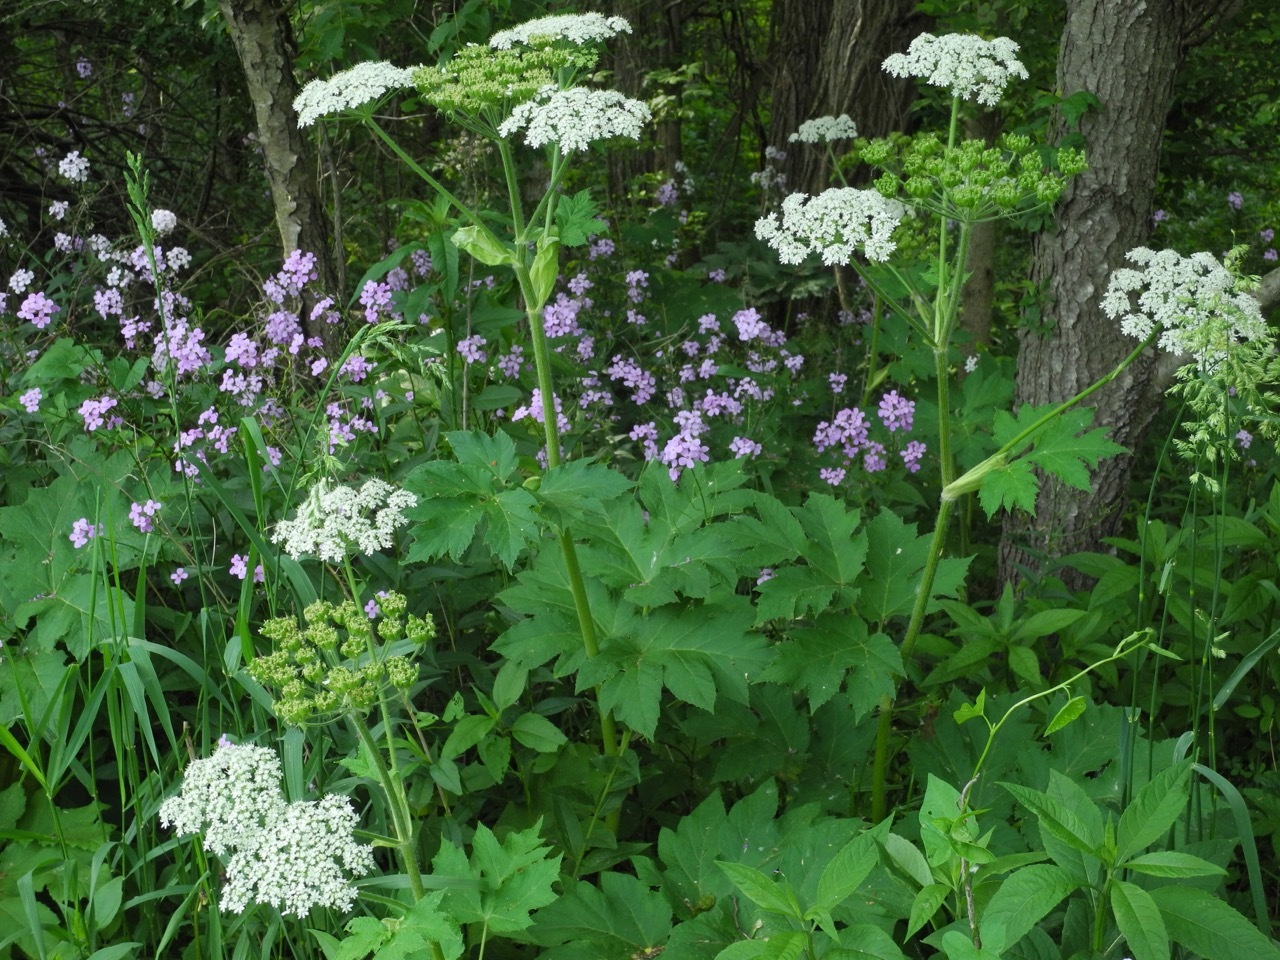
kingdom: Plantae
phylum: Tracheophyta
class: Magnoliopsida
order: Apiales
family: Apiaceae
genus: Heracleum
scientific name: Heracleum maximum
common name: American cow parsnip
